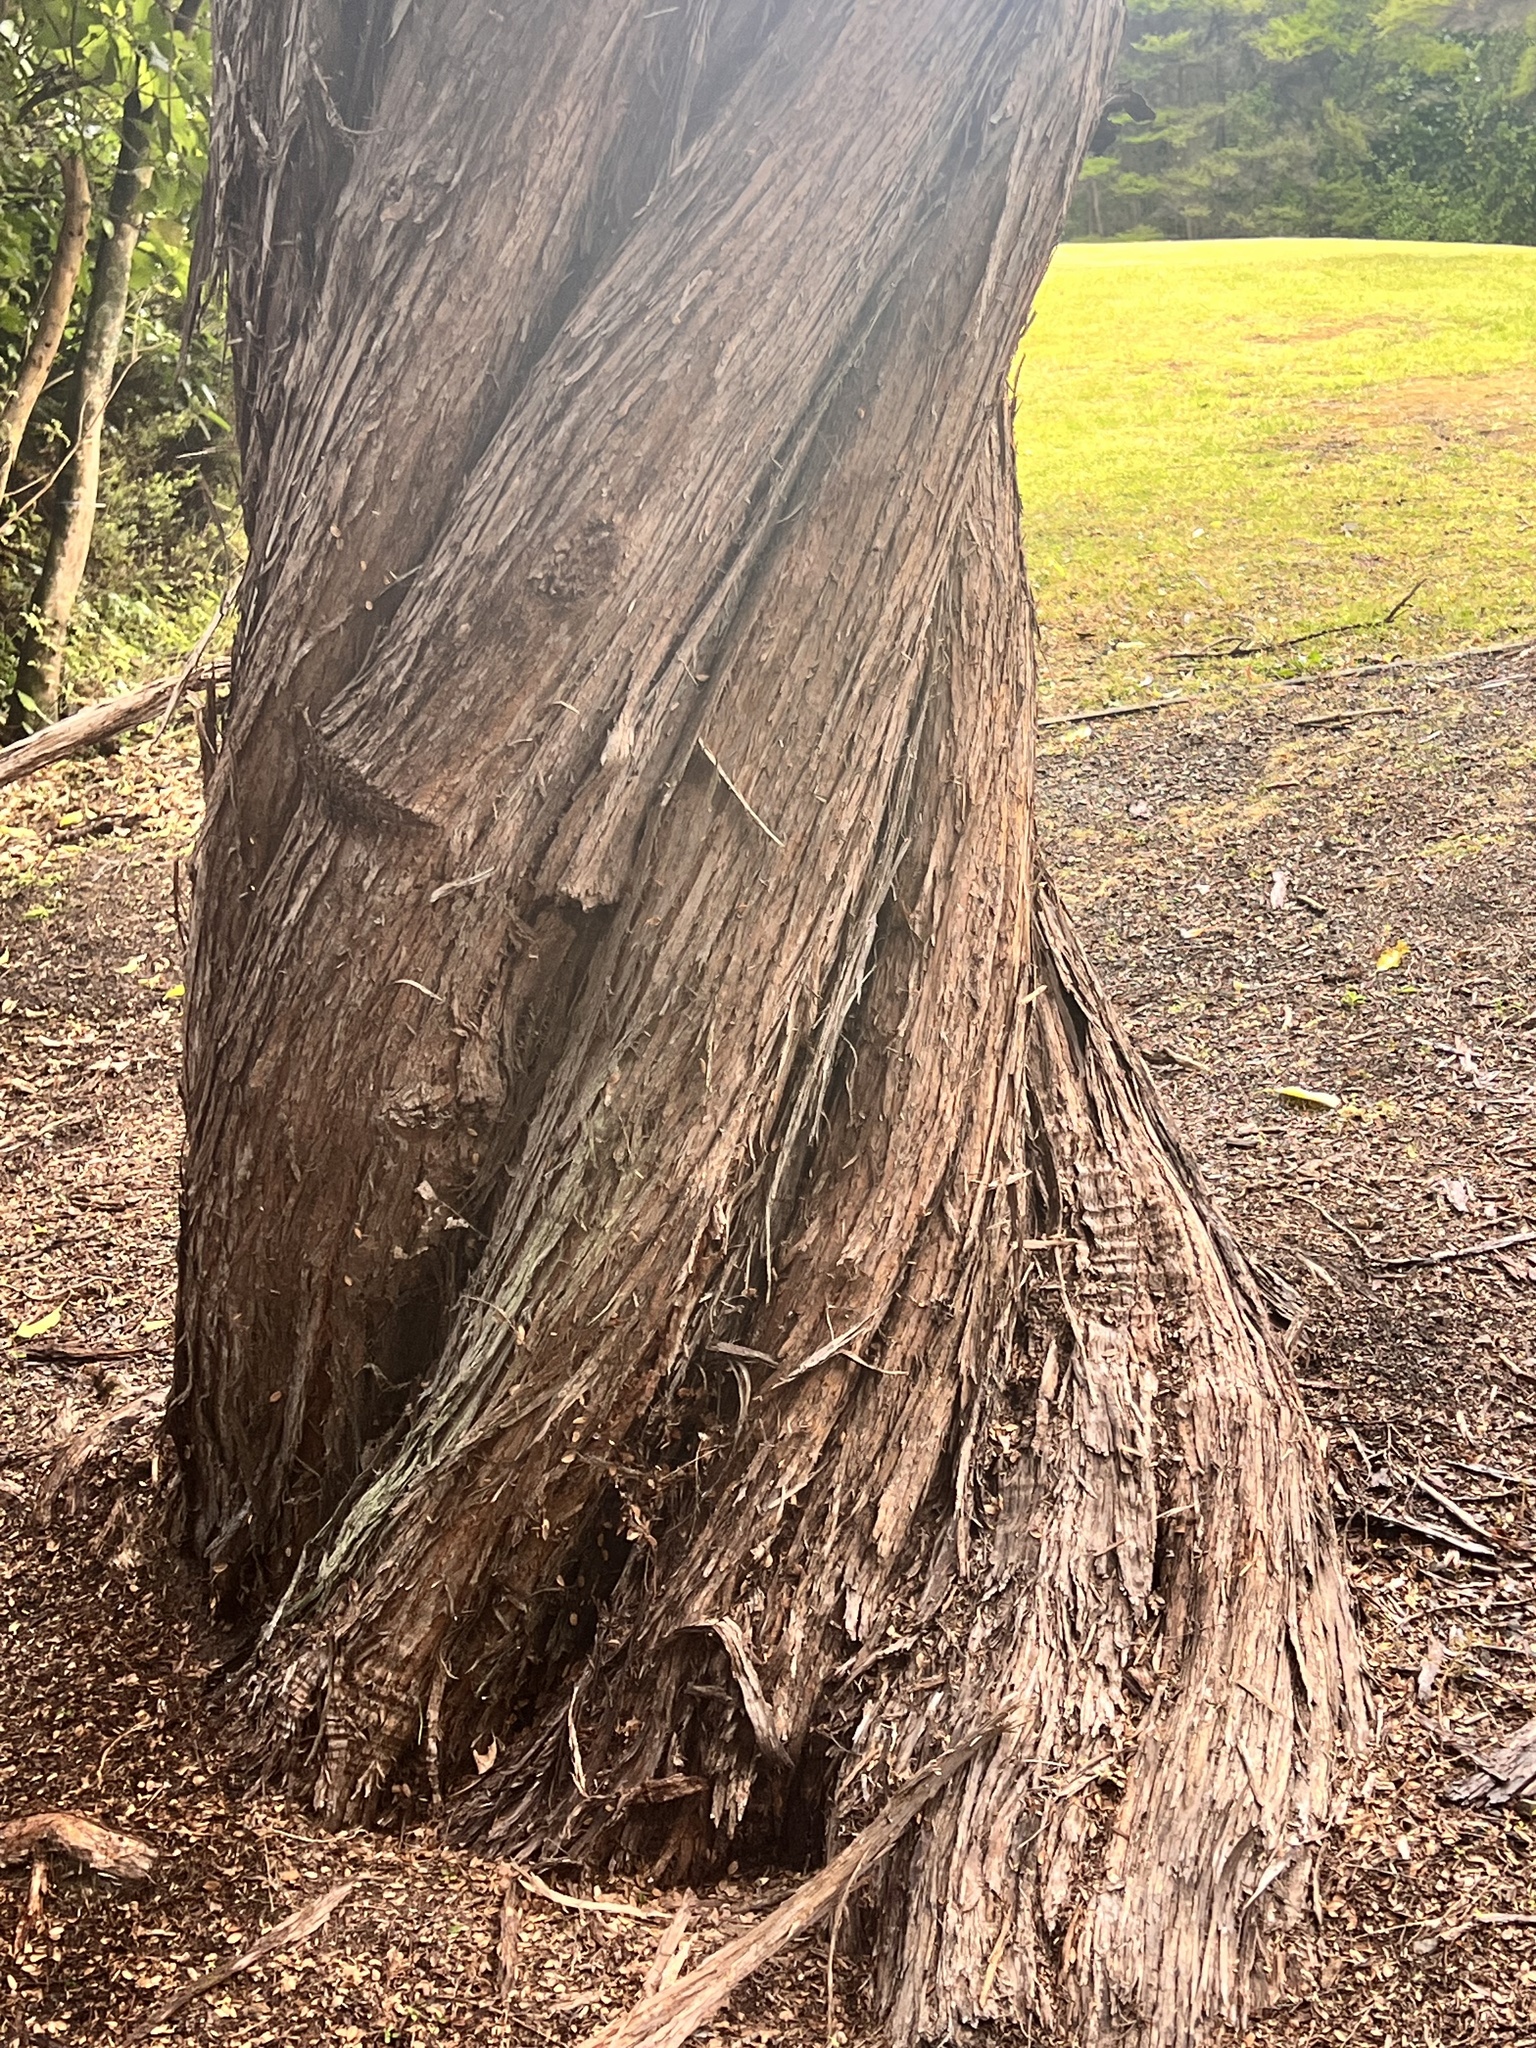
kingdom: Plantae
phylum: Tracheophyta
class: Magnoliopsida
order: Laurales
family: Atherospermataceae
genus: Laurelia
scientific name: Laurelia novae-zelandiae
